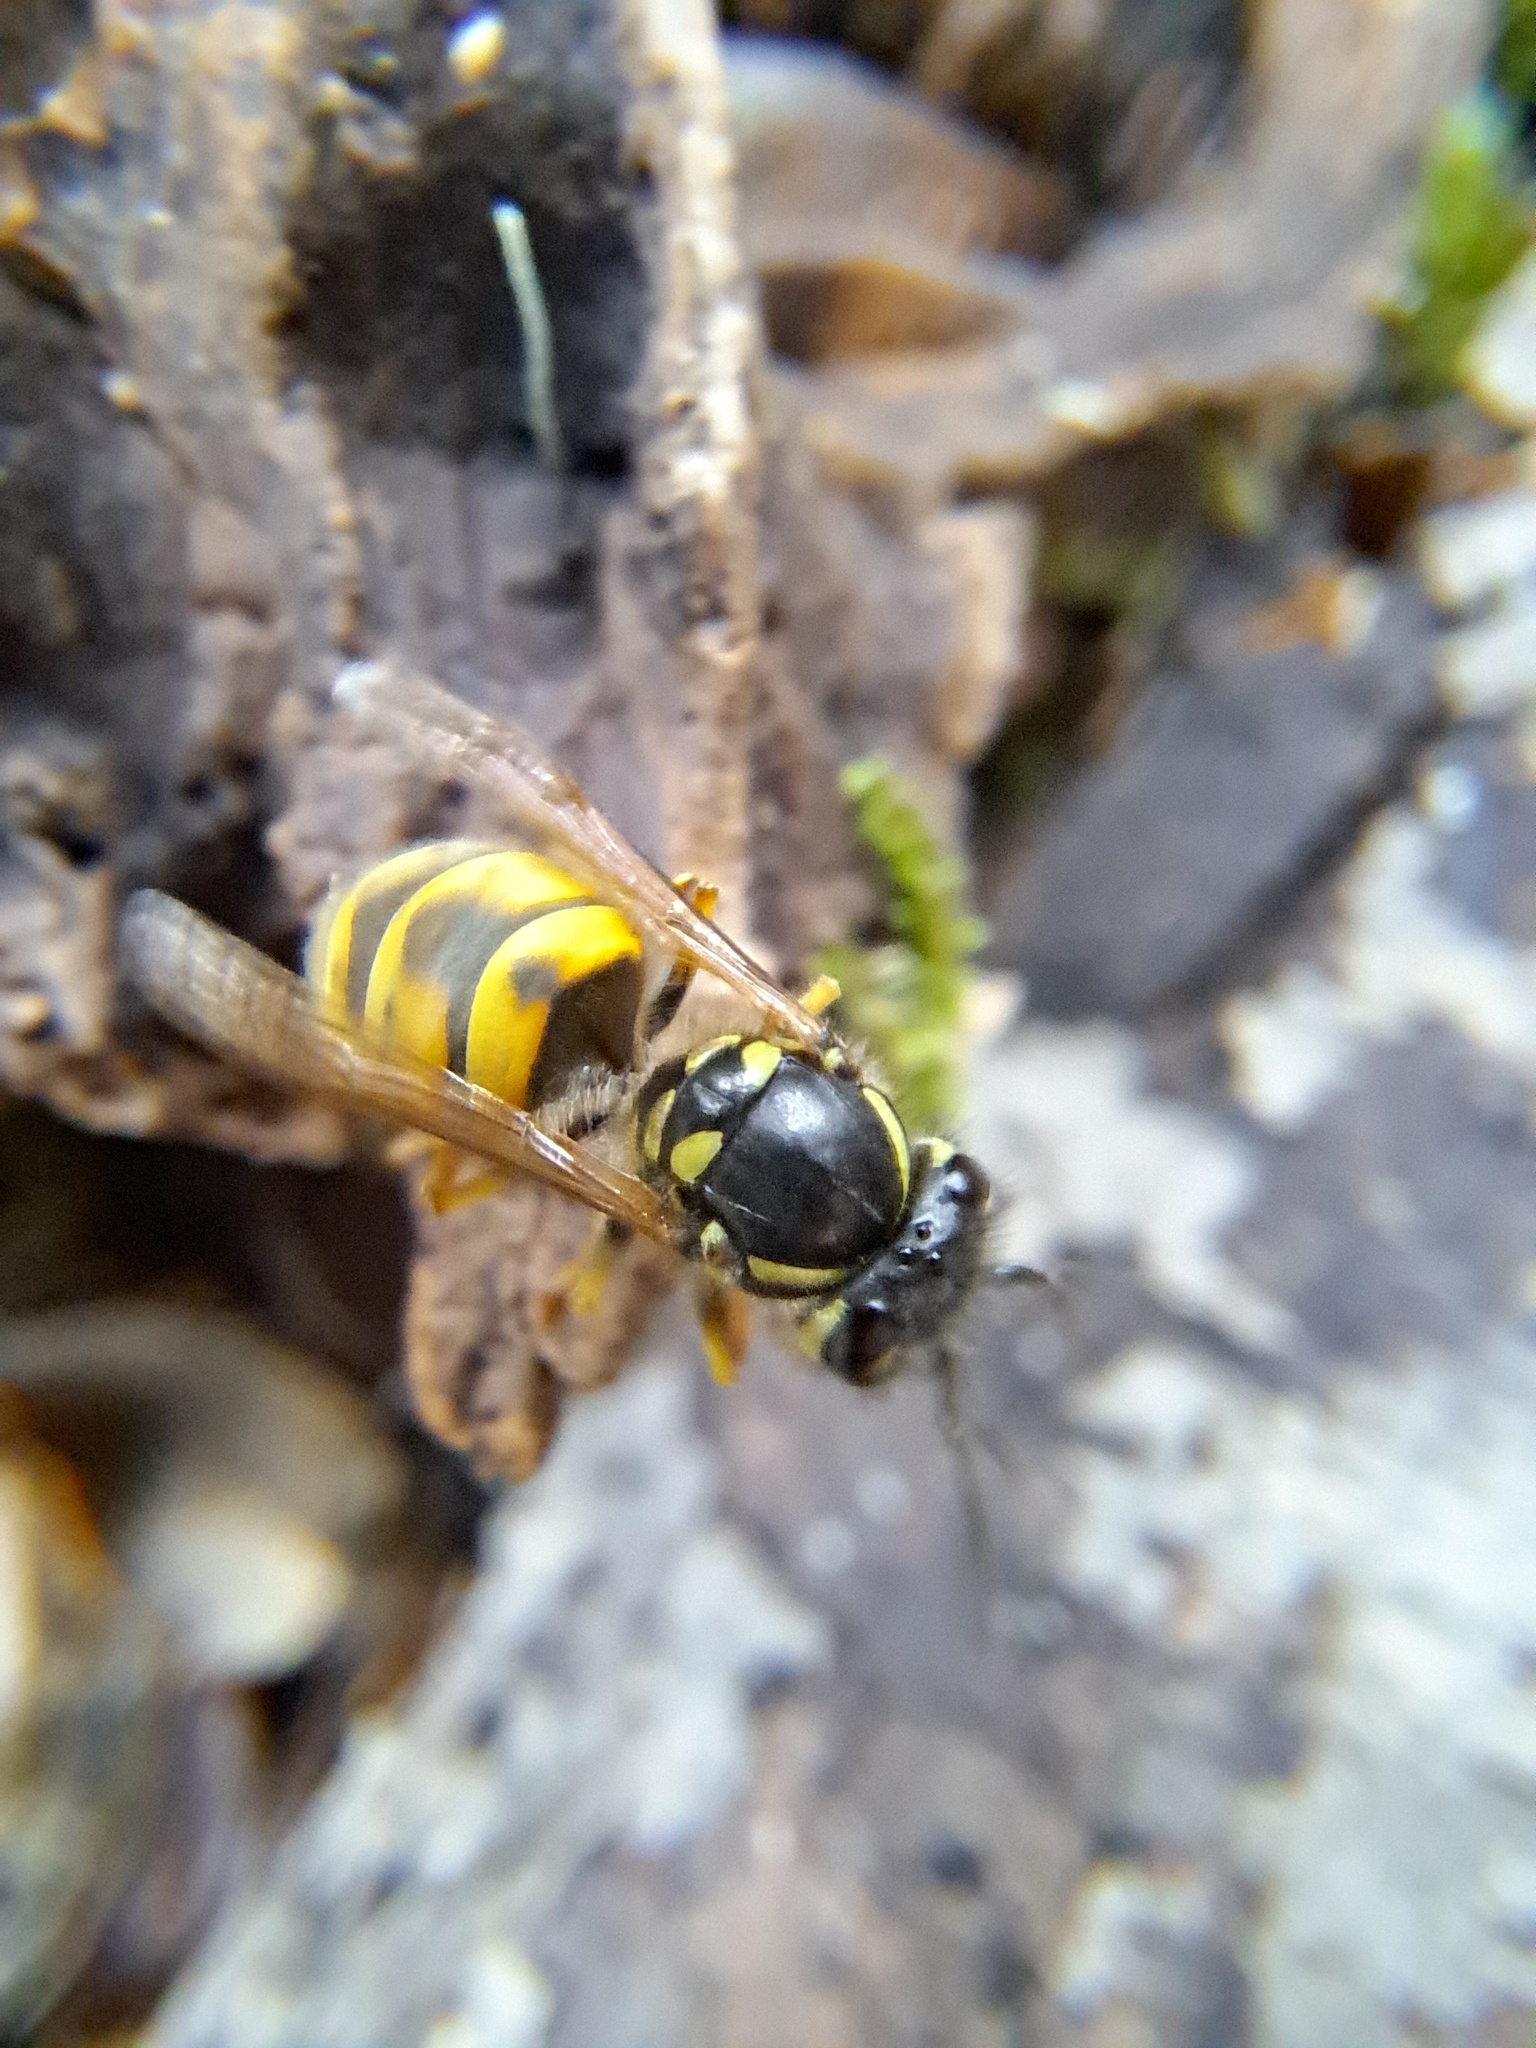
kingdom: Animalia
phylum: Arthropoda
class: Insecta
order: Hymenoptera
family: Vespidae
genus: Vespula
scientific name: Vespula vulgaris
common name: Common wasp
